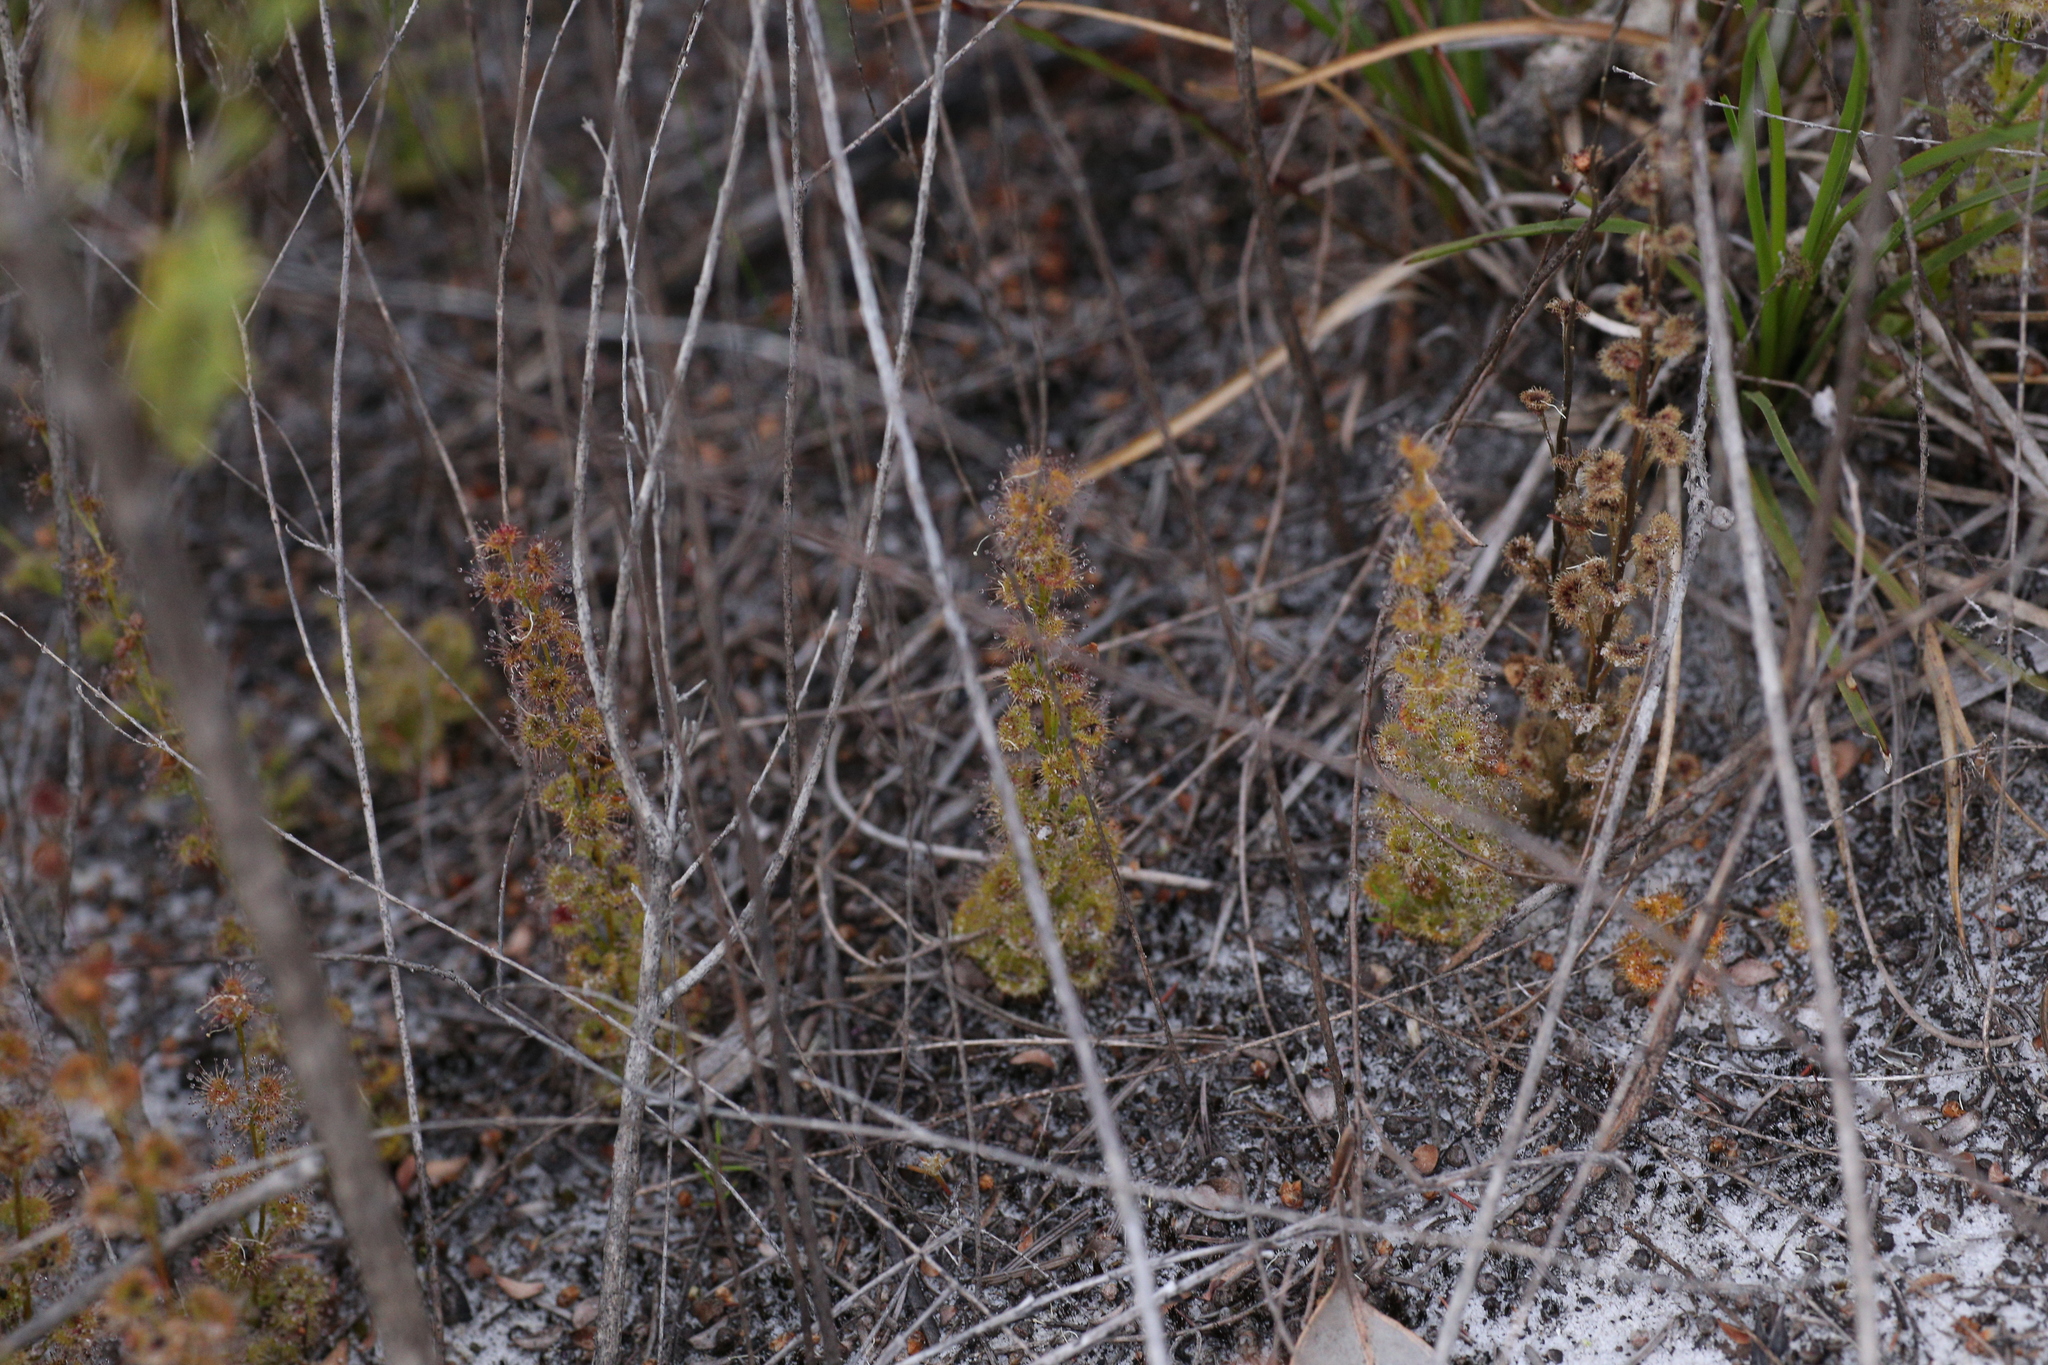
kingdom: Plantae
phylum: Tracheophyta
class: Magnoliopsida
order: Caryophyllales
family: Droseraceae
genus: Drosera
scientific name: Drosera platypoda
